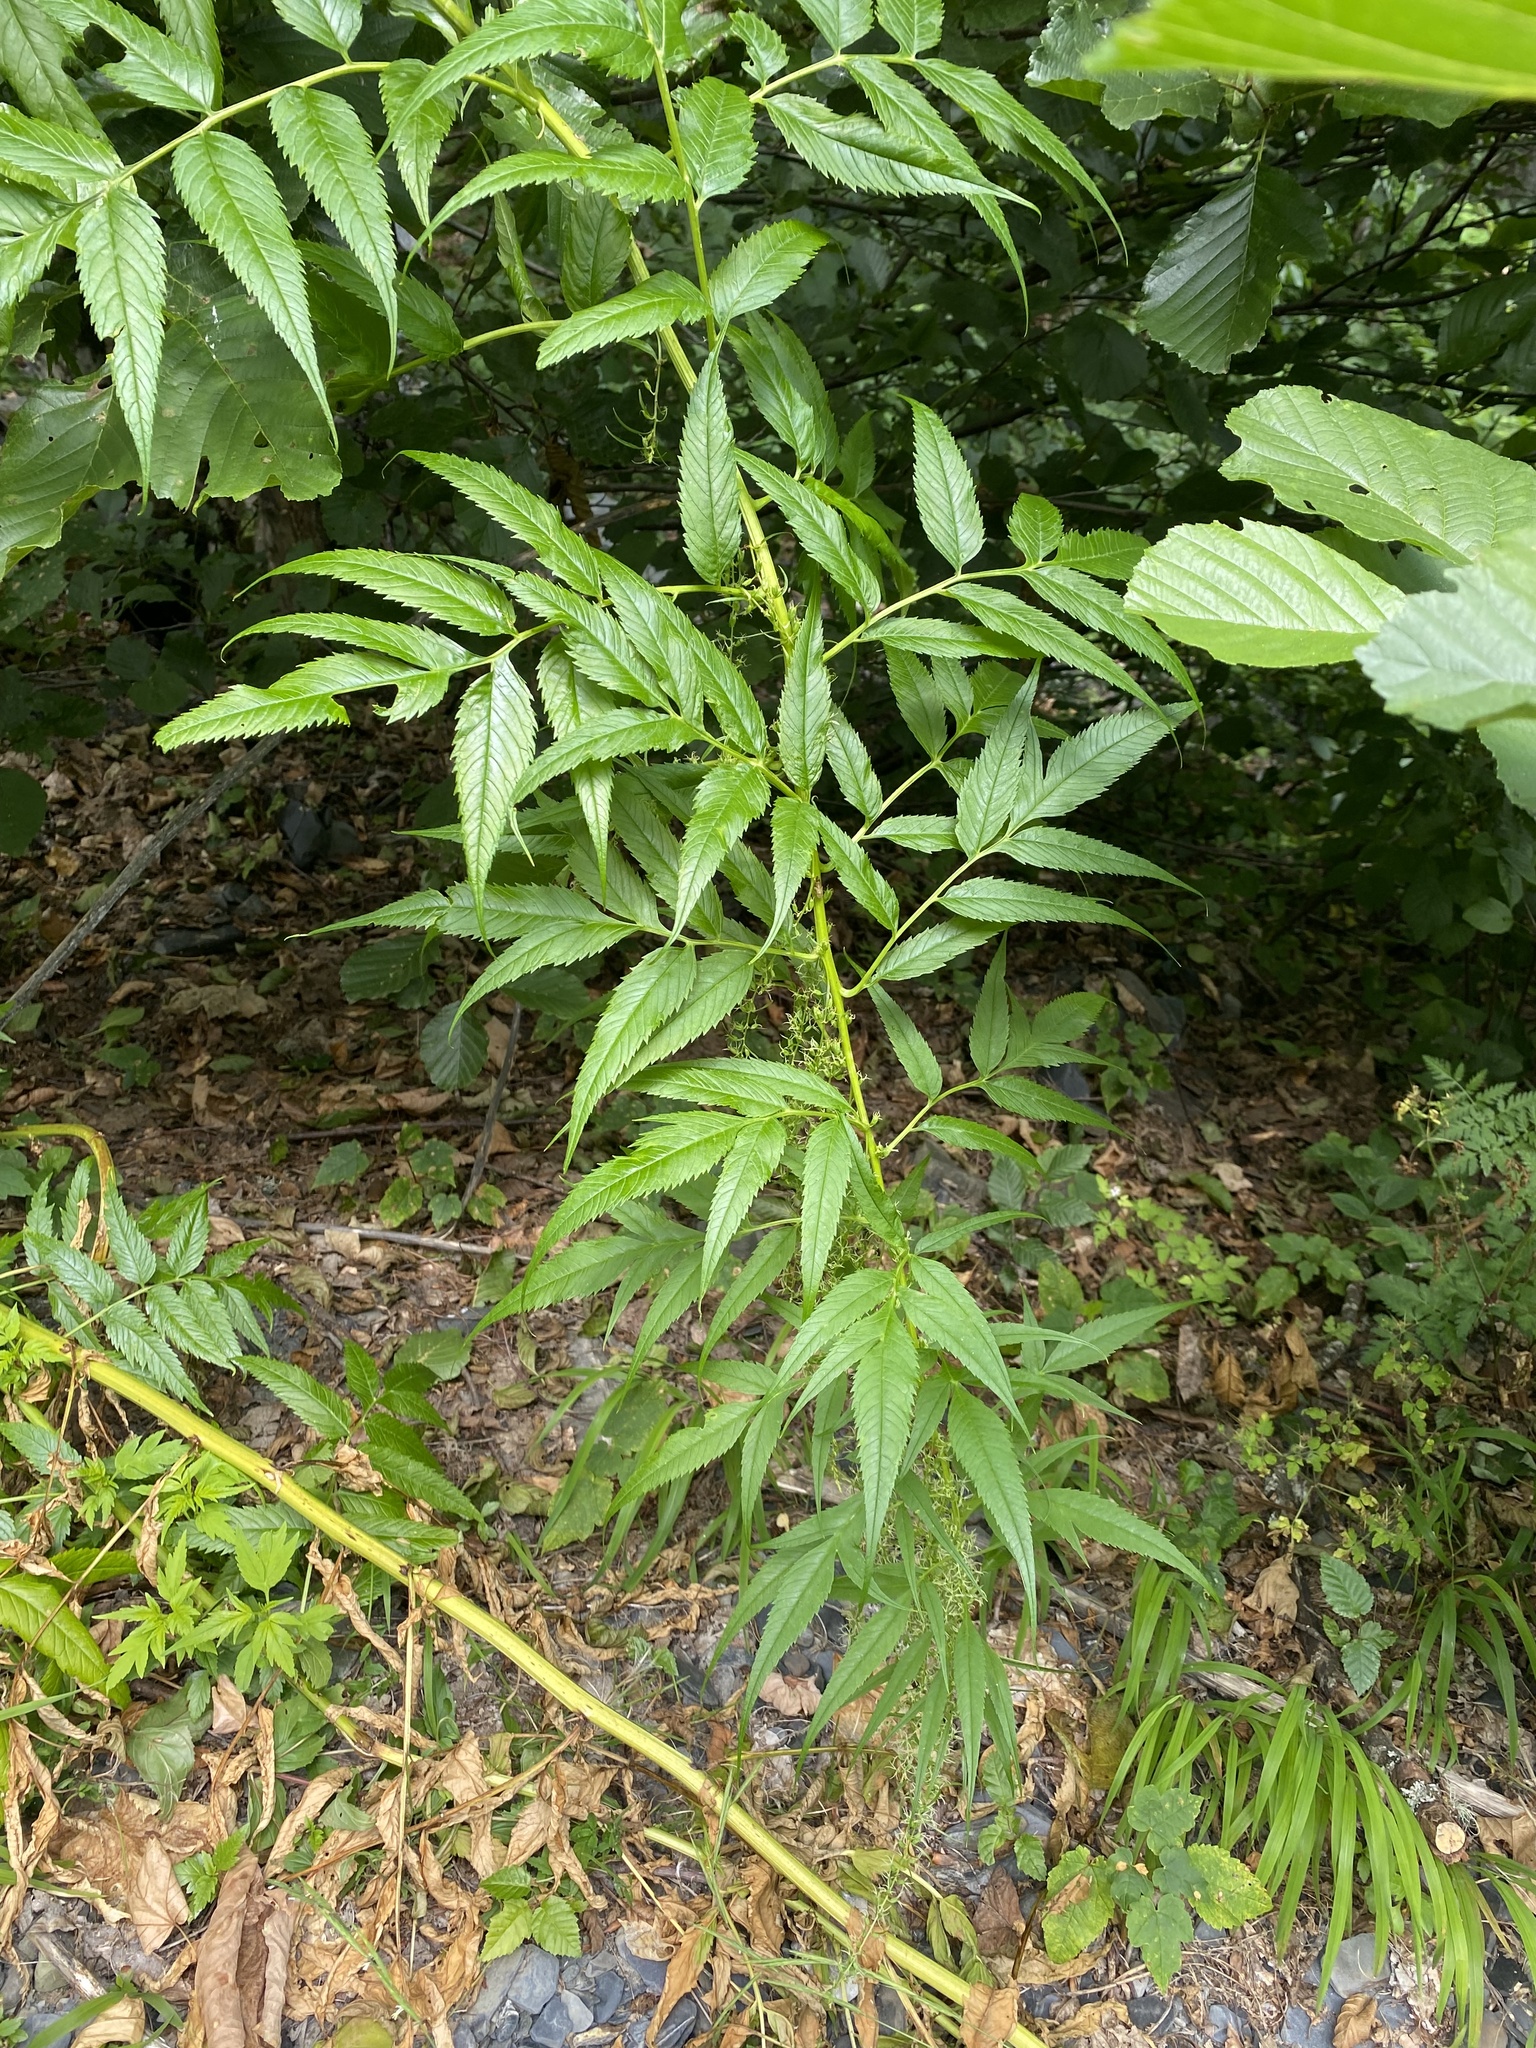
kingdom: Plantae
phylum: Tracheophyta
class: Magnoliopsida
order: Cucurbitales
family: Datiscaceae
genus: Datisca
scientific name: Datisca cannabina
